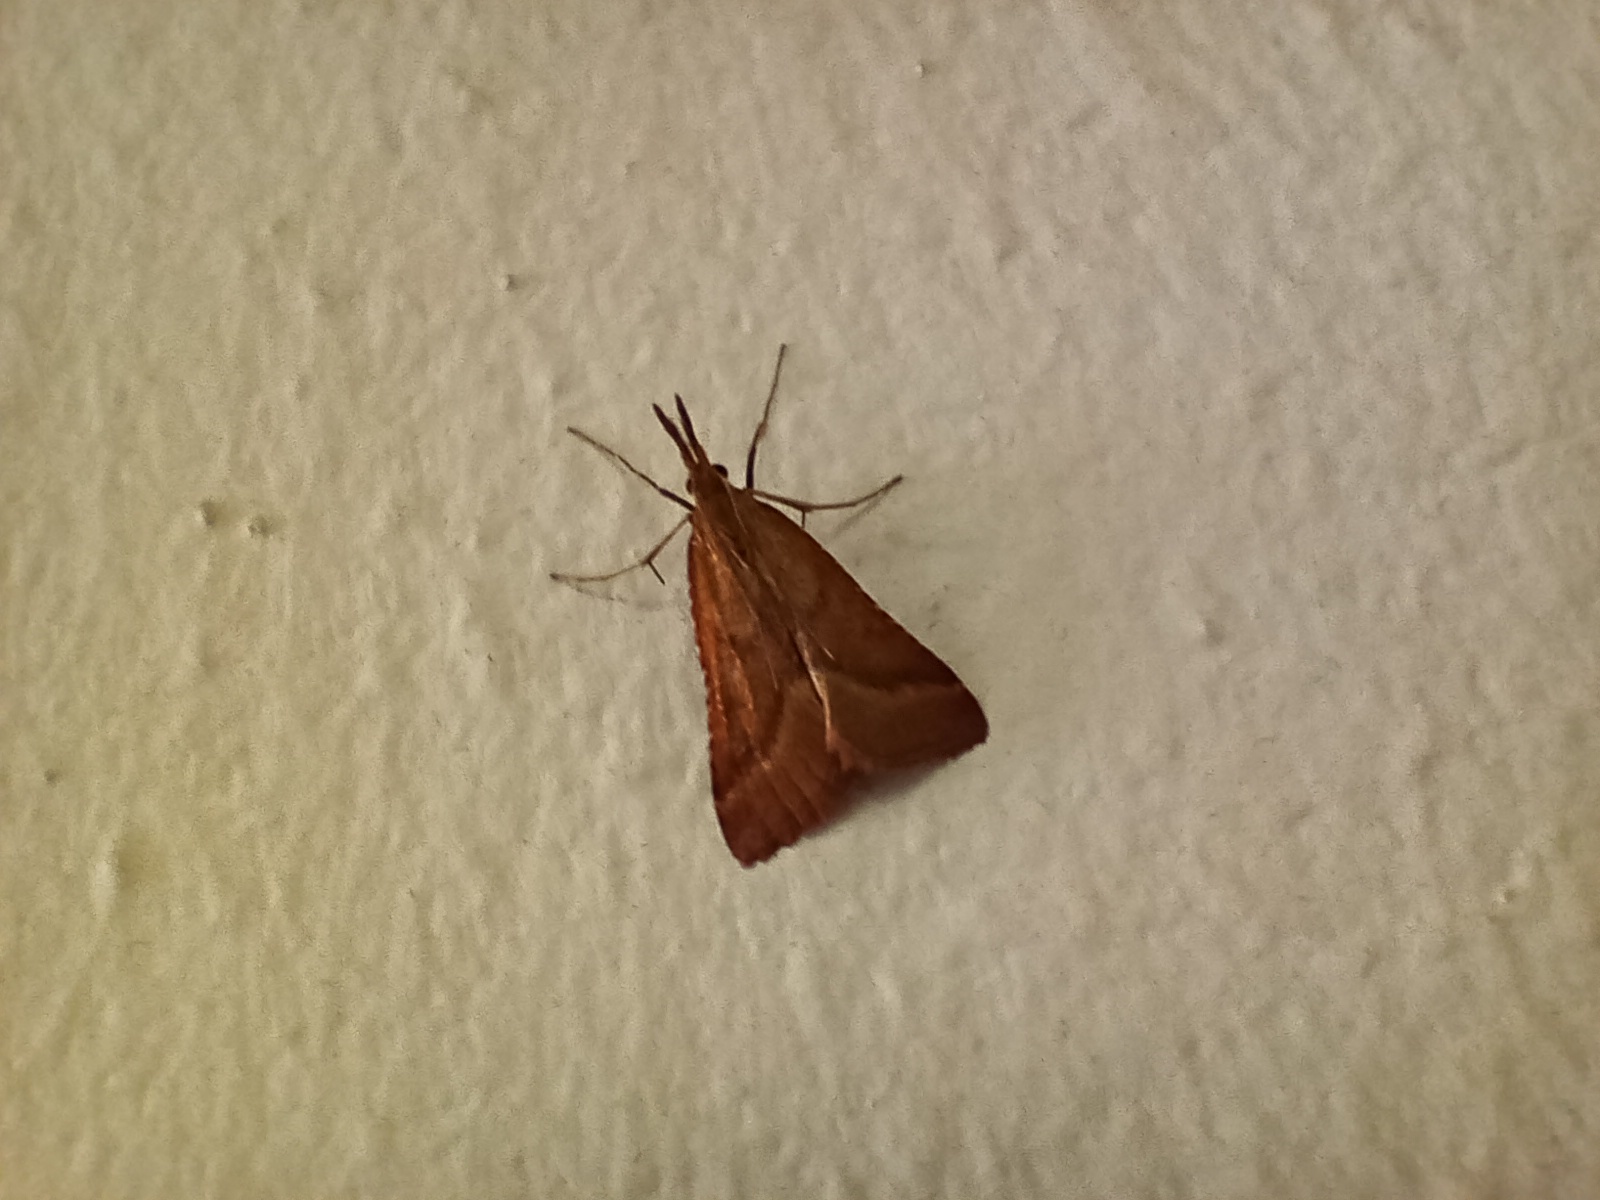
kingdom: Animalia
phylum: Arthropoda
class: Insecta
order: Lepidoptera
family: Pyralidae
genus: Synaphe
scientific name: Synaphe punctalis
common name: Long-legged tabby
